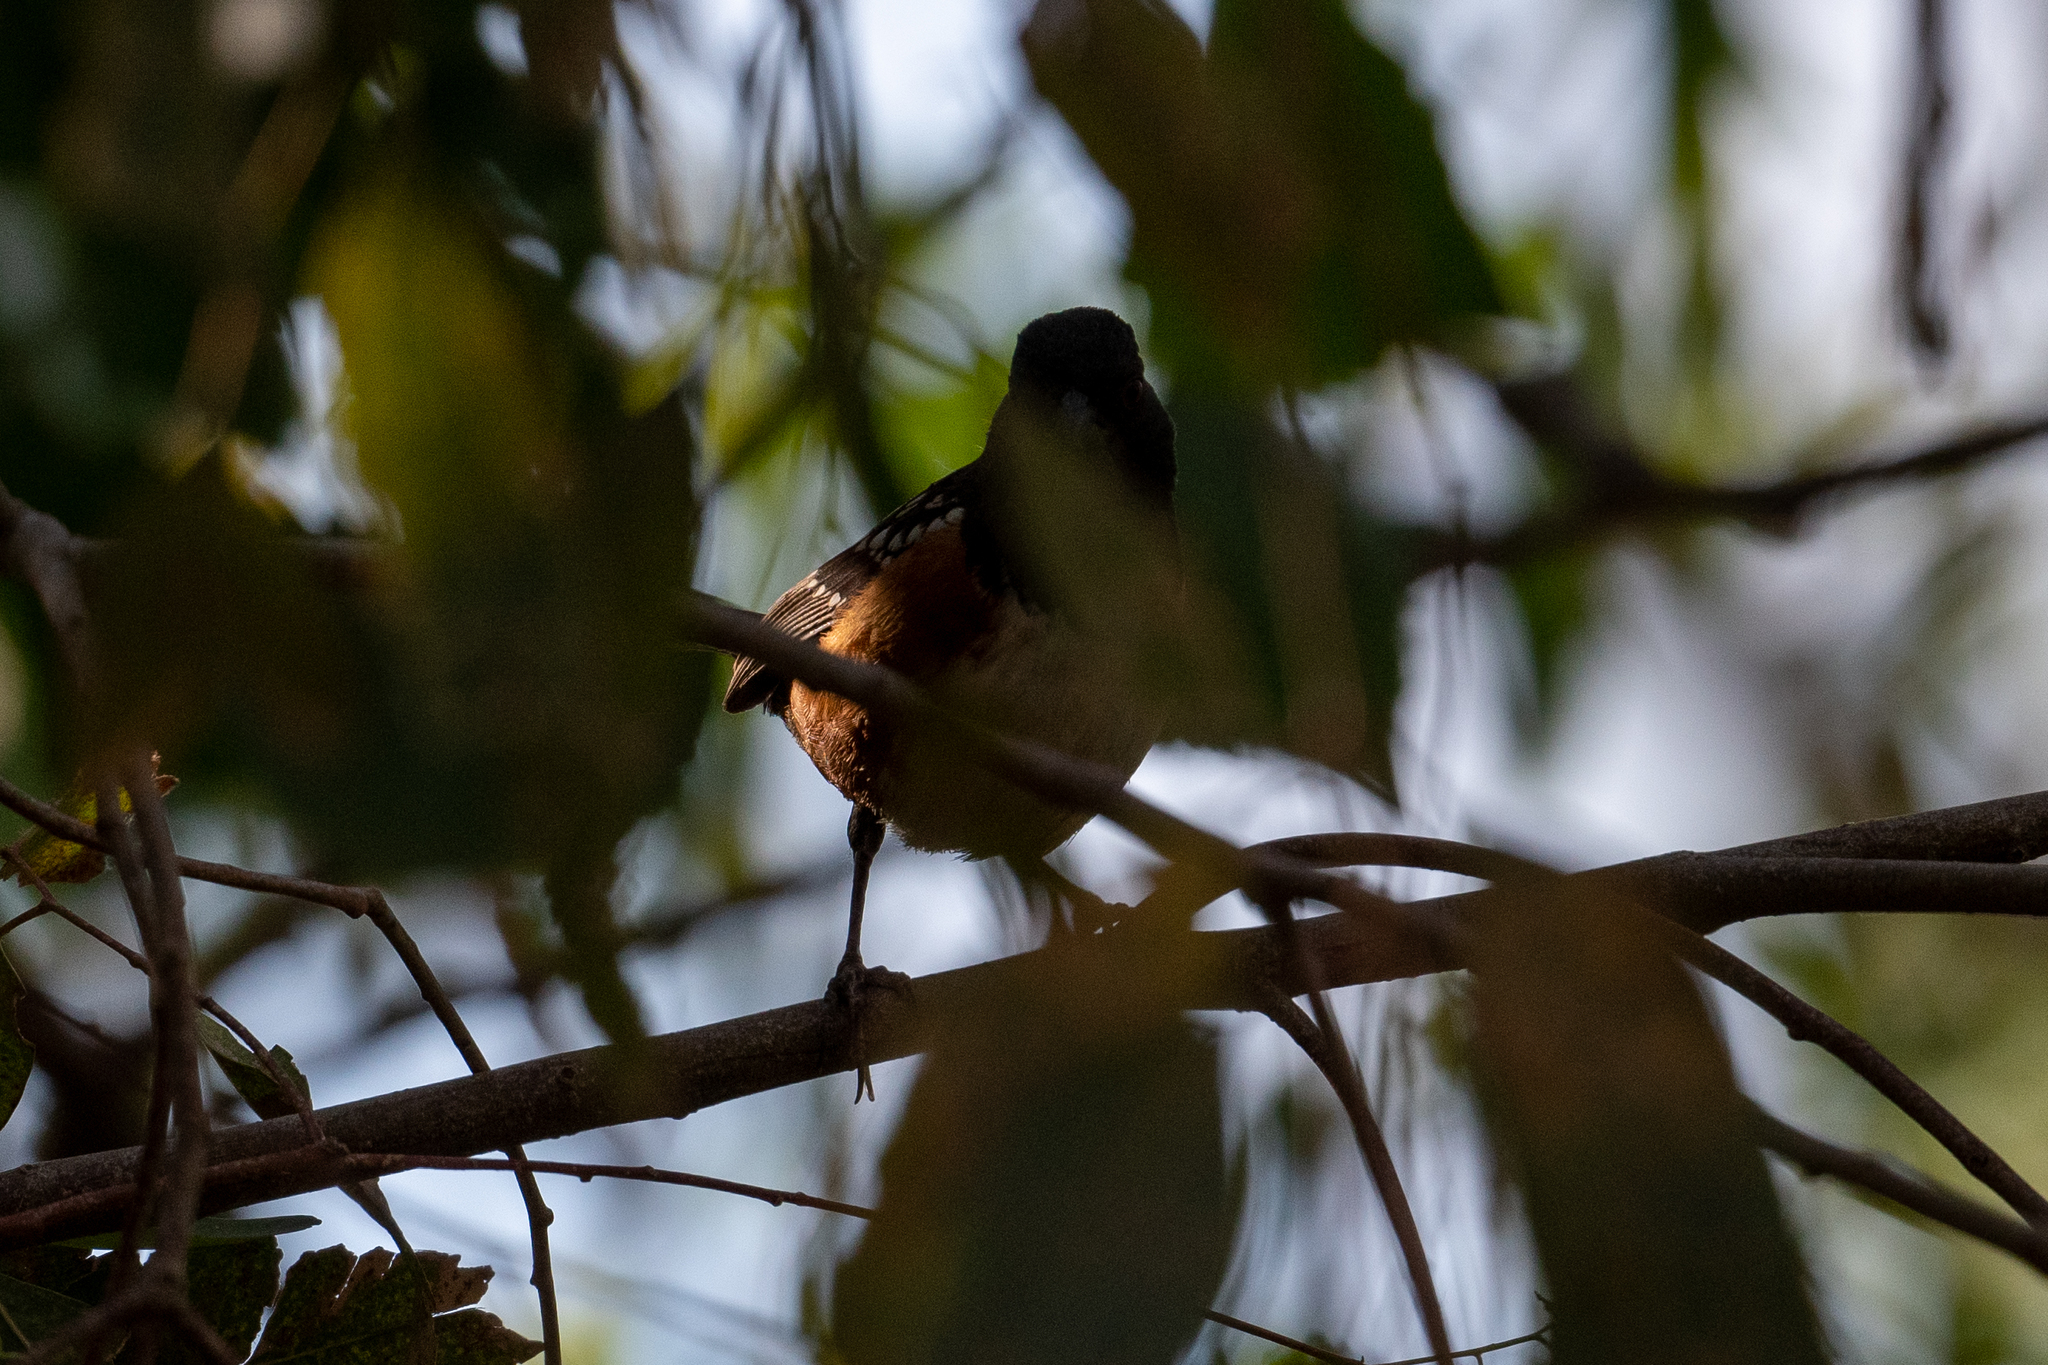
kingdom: Animalia
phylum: Chordata
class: Aves
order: Passeriformes
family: Passerellidae
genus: Pipilo
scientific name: Pipilo maculatus
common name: Spotted towhee
